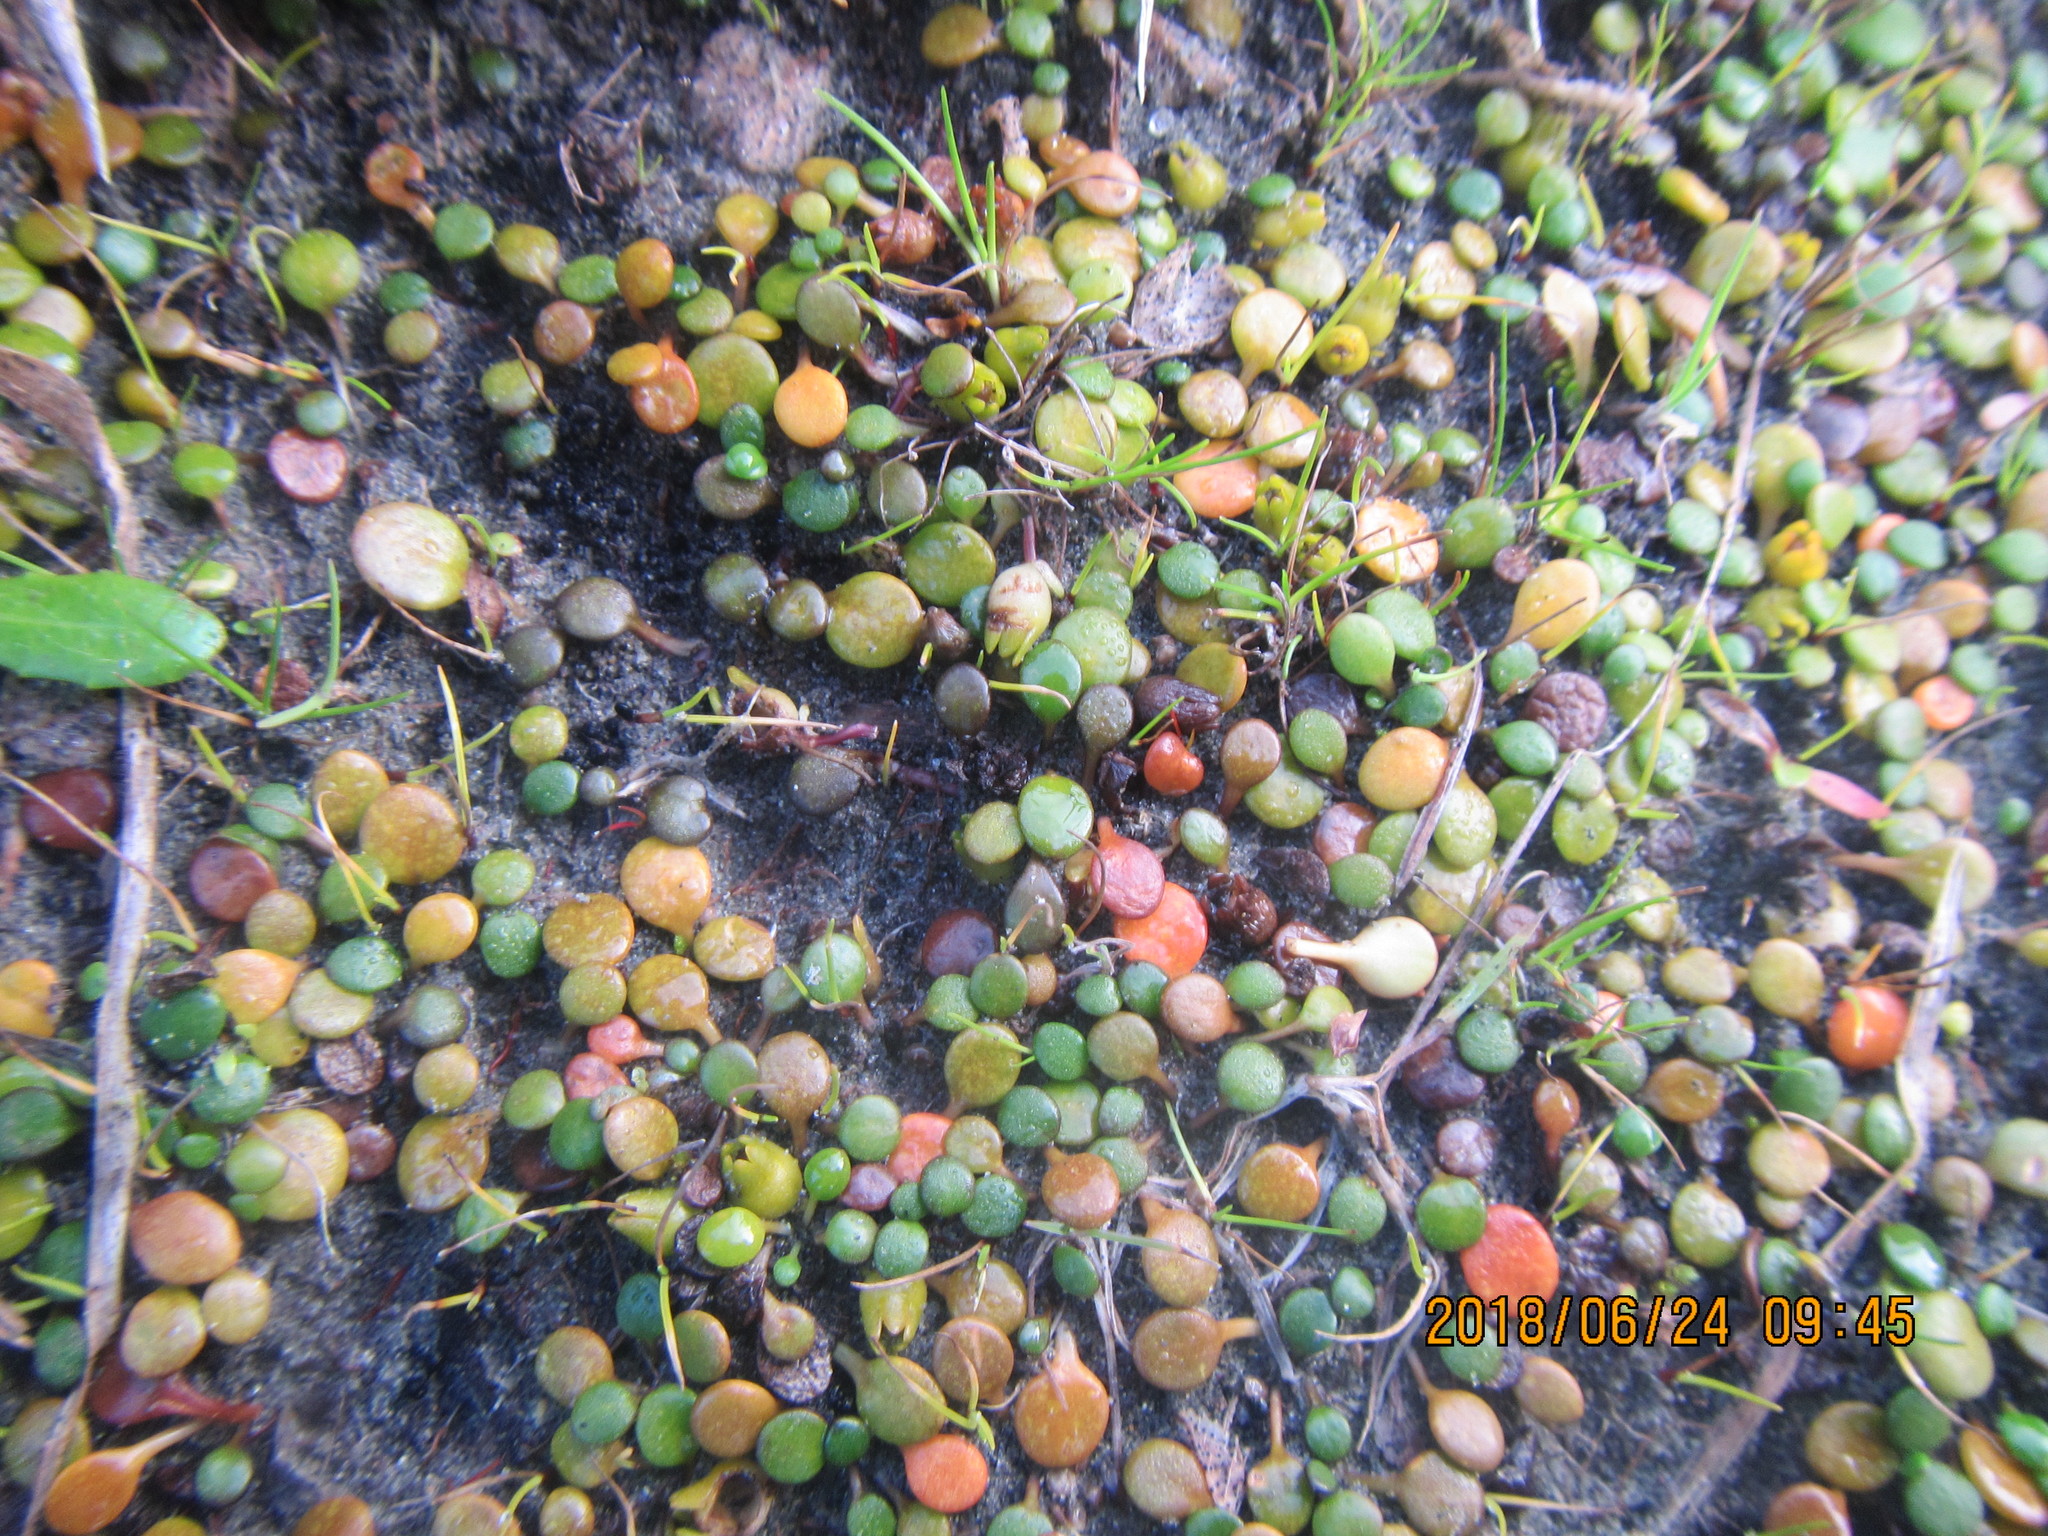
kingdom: Plantae
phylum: Tracheophyta
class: Magnoliopsida
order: Asterales
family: Goodeniaceae
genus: Goodenia
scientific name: Goodenia heenanii
